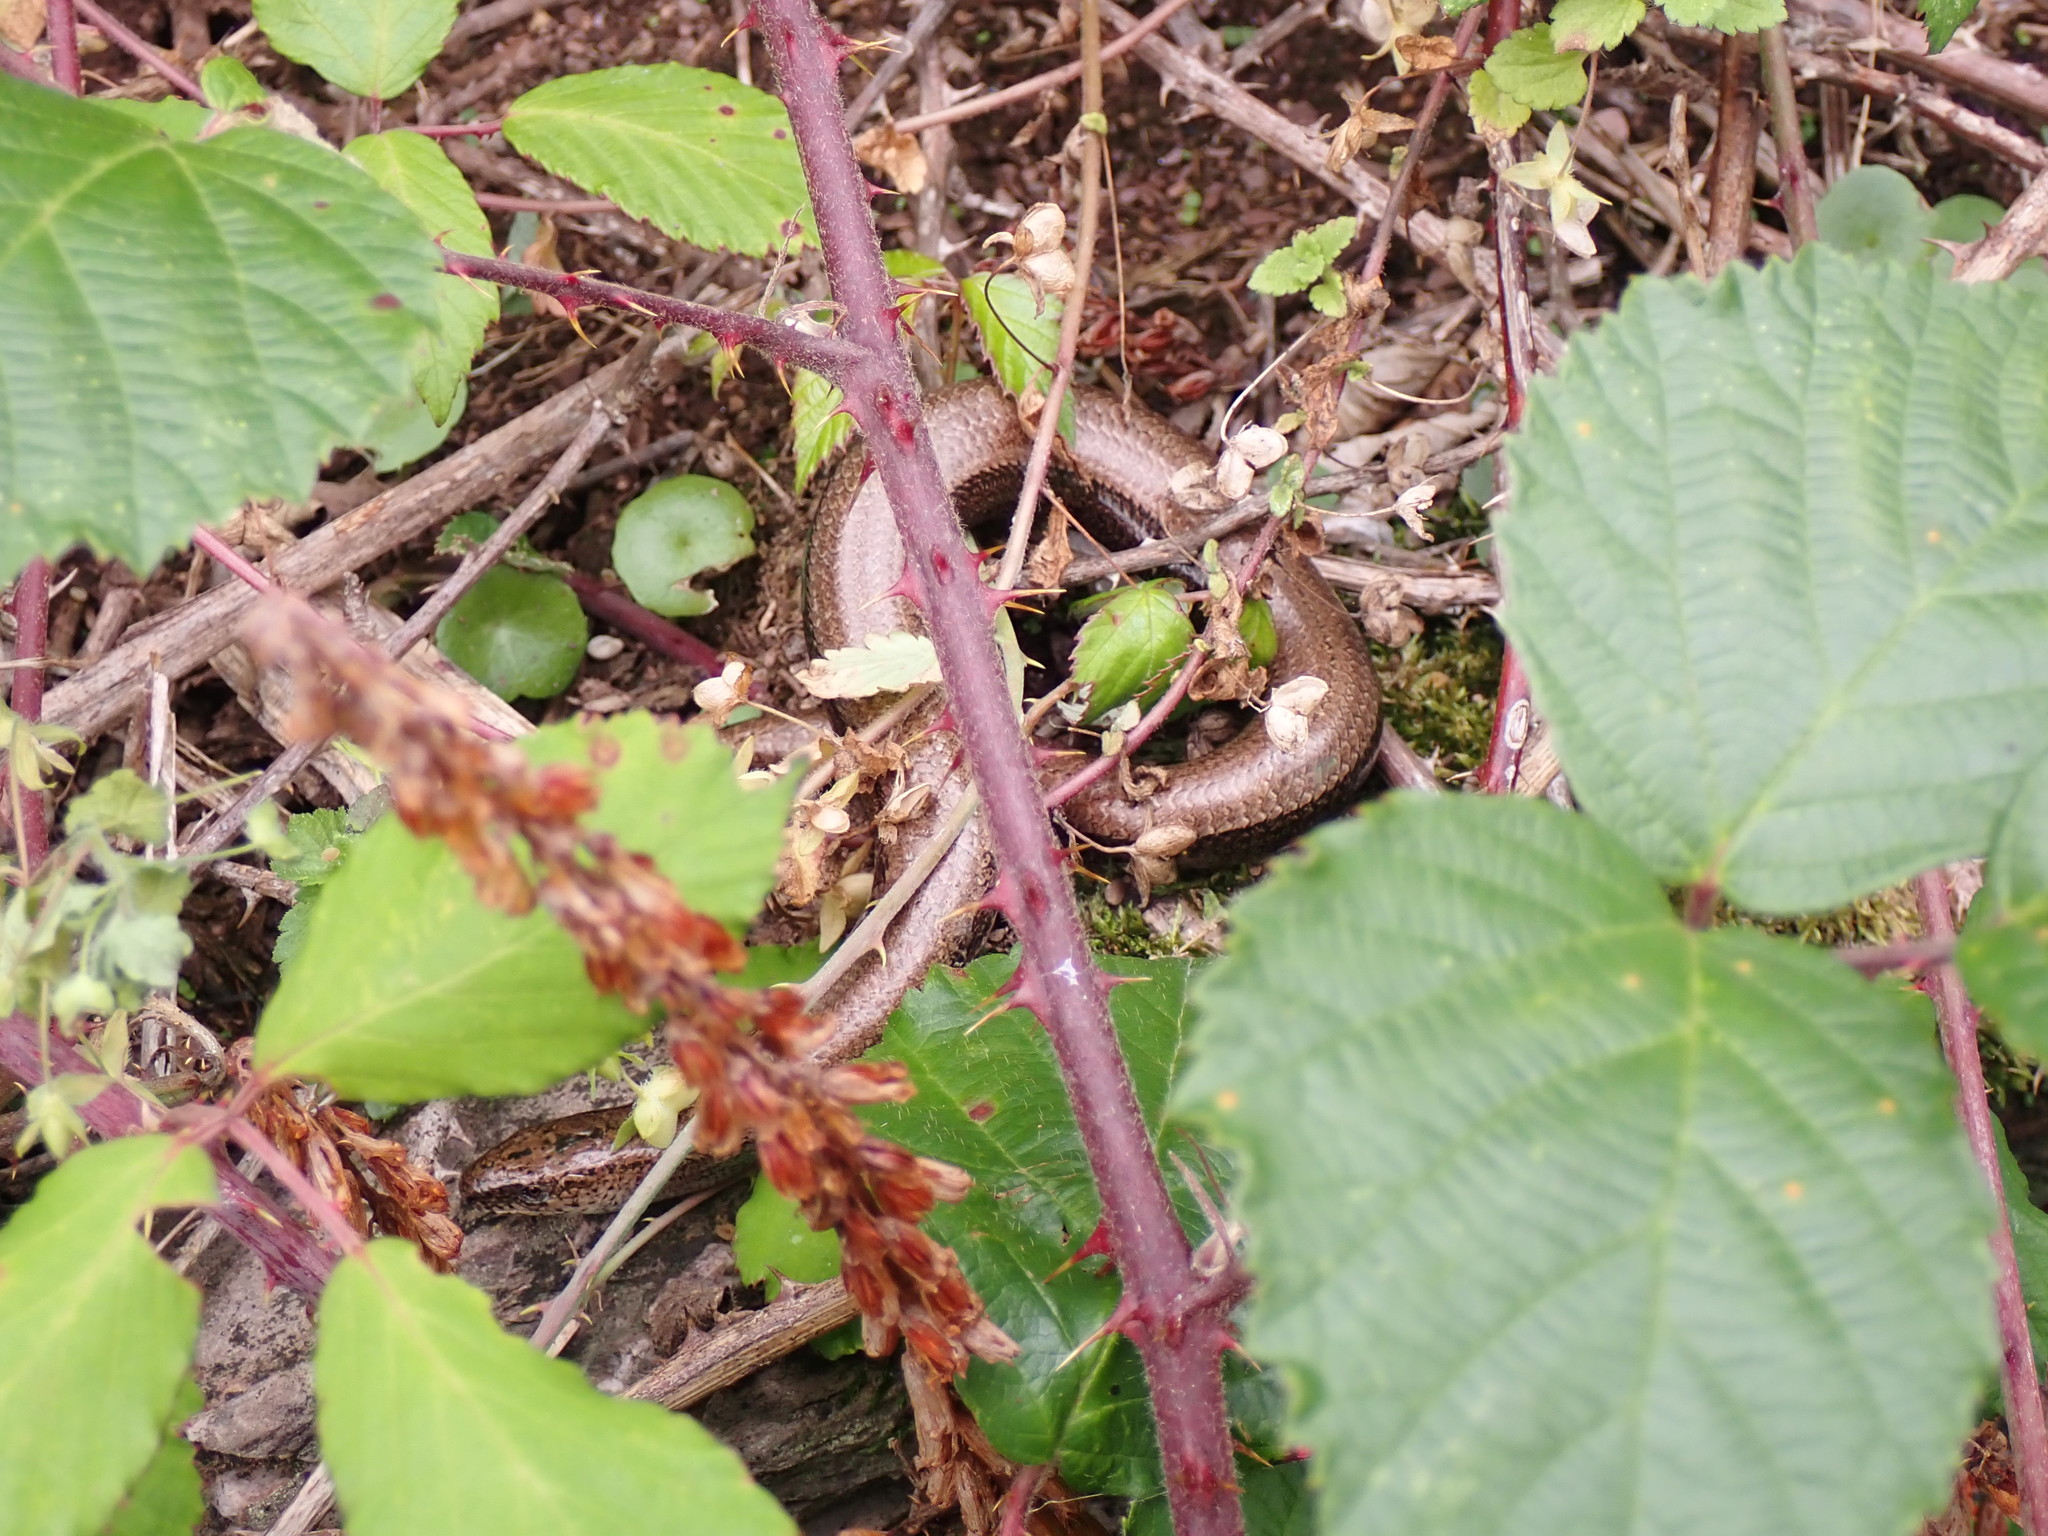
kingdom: Animalia
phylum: Chordata
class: Squamata
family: Anguidae
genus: Anguis
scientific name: Anguis fragilis
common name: Slow worm
